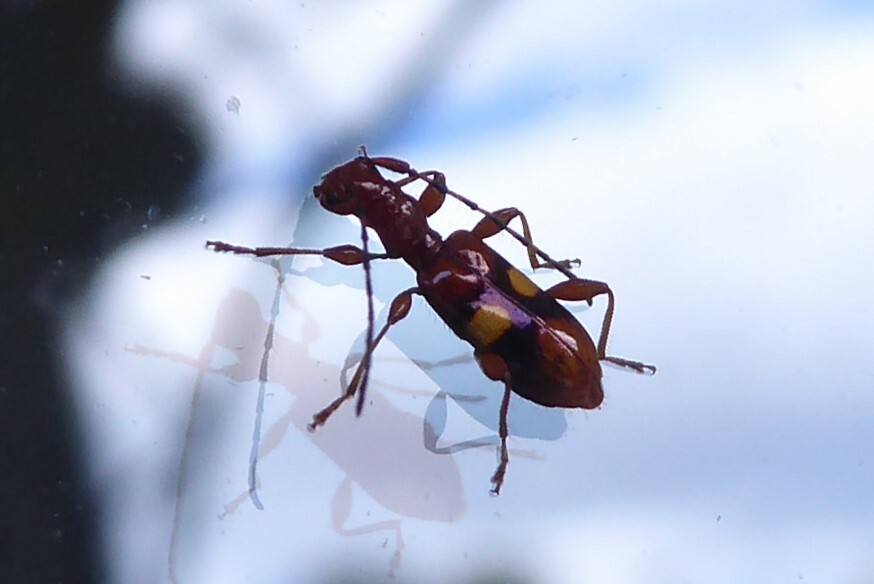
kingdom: Animalia
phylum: Arthropoda
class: Insecta
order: Coleoptera
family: Cerambycidae
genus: Zorion
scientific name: Zorion australe
